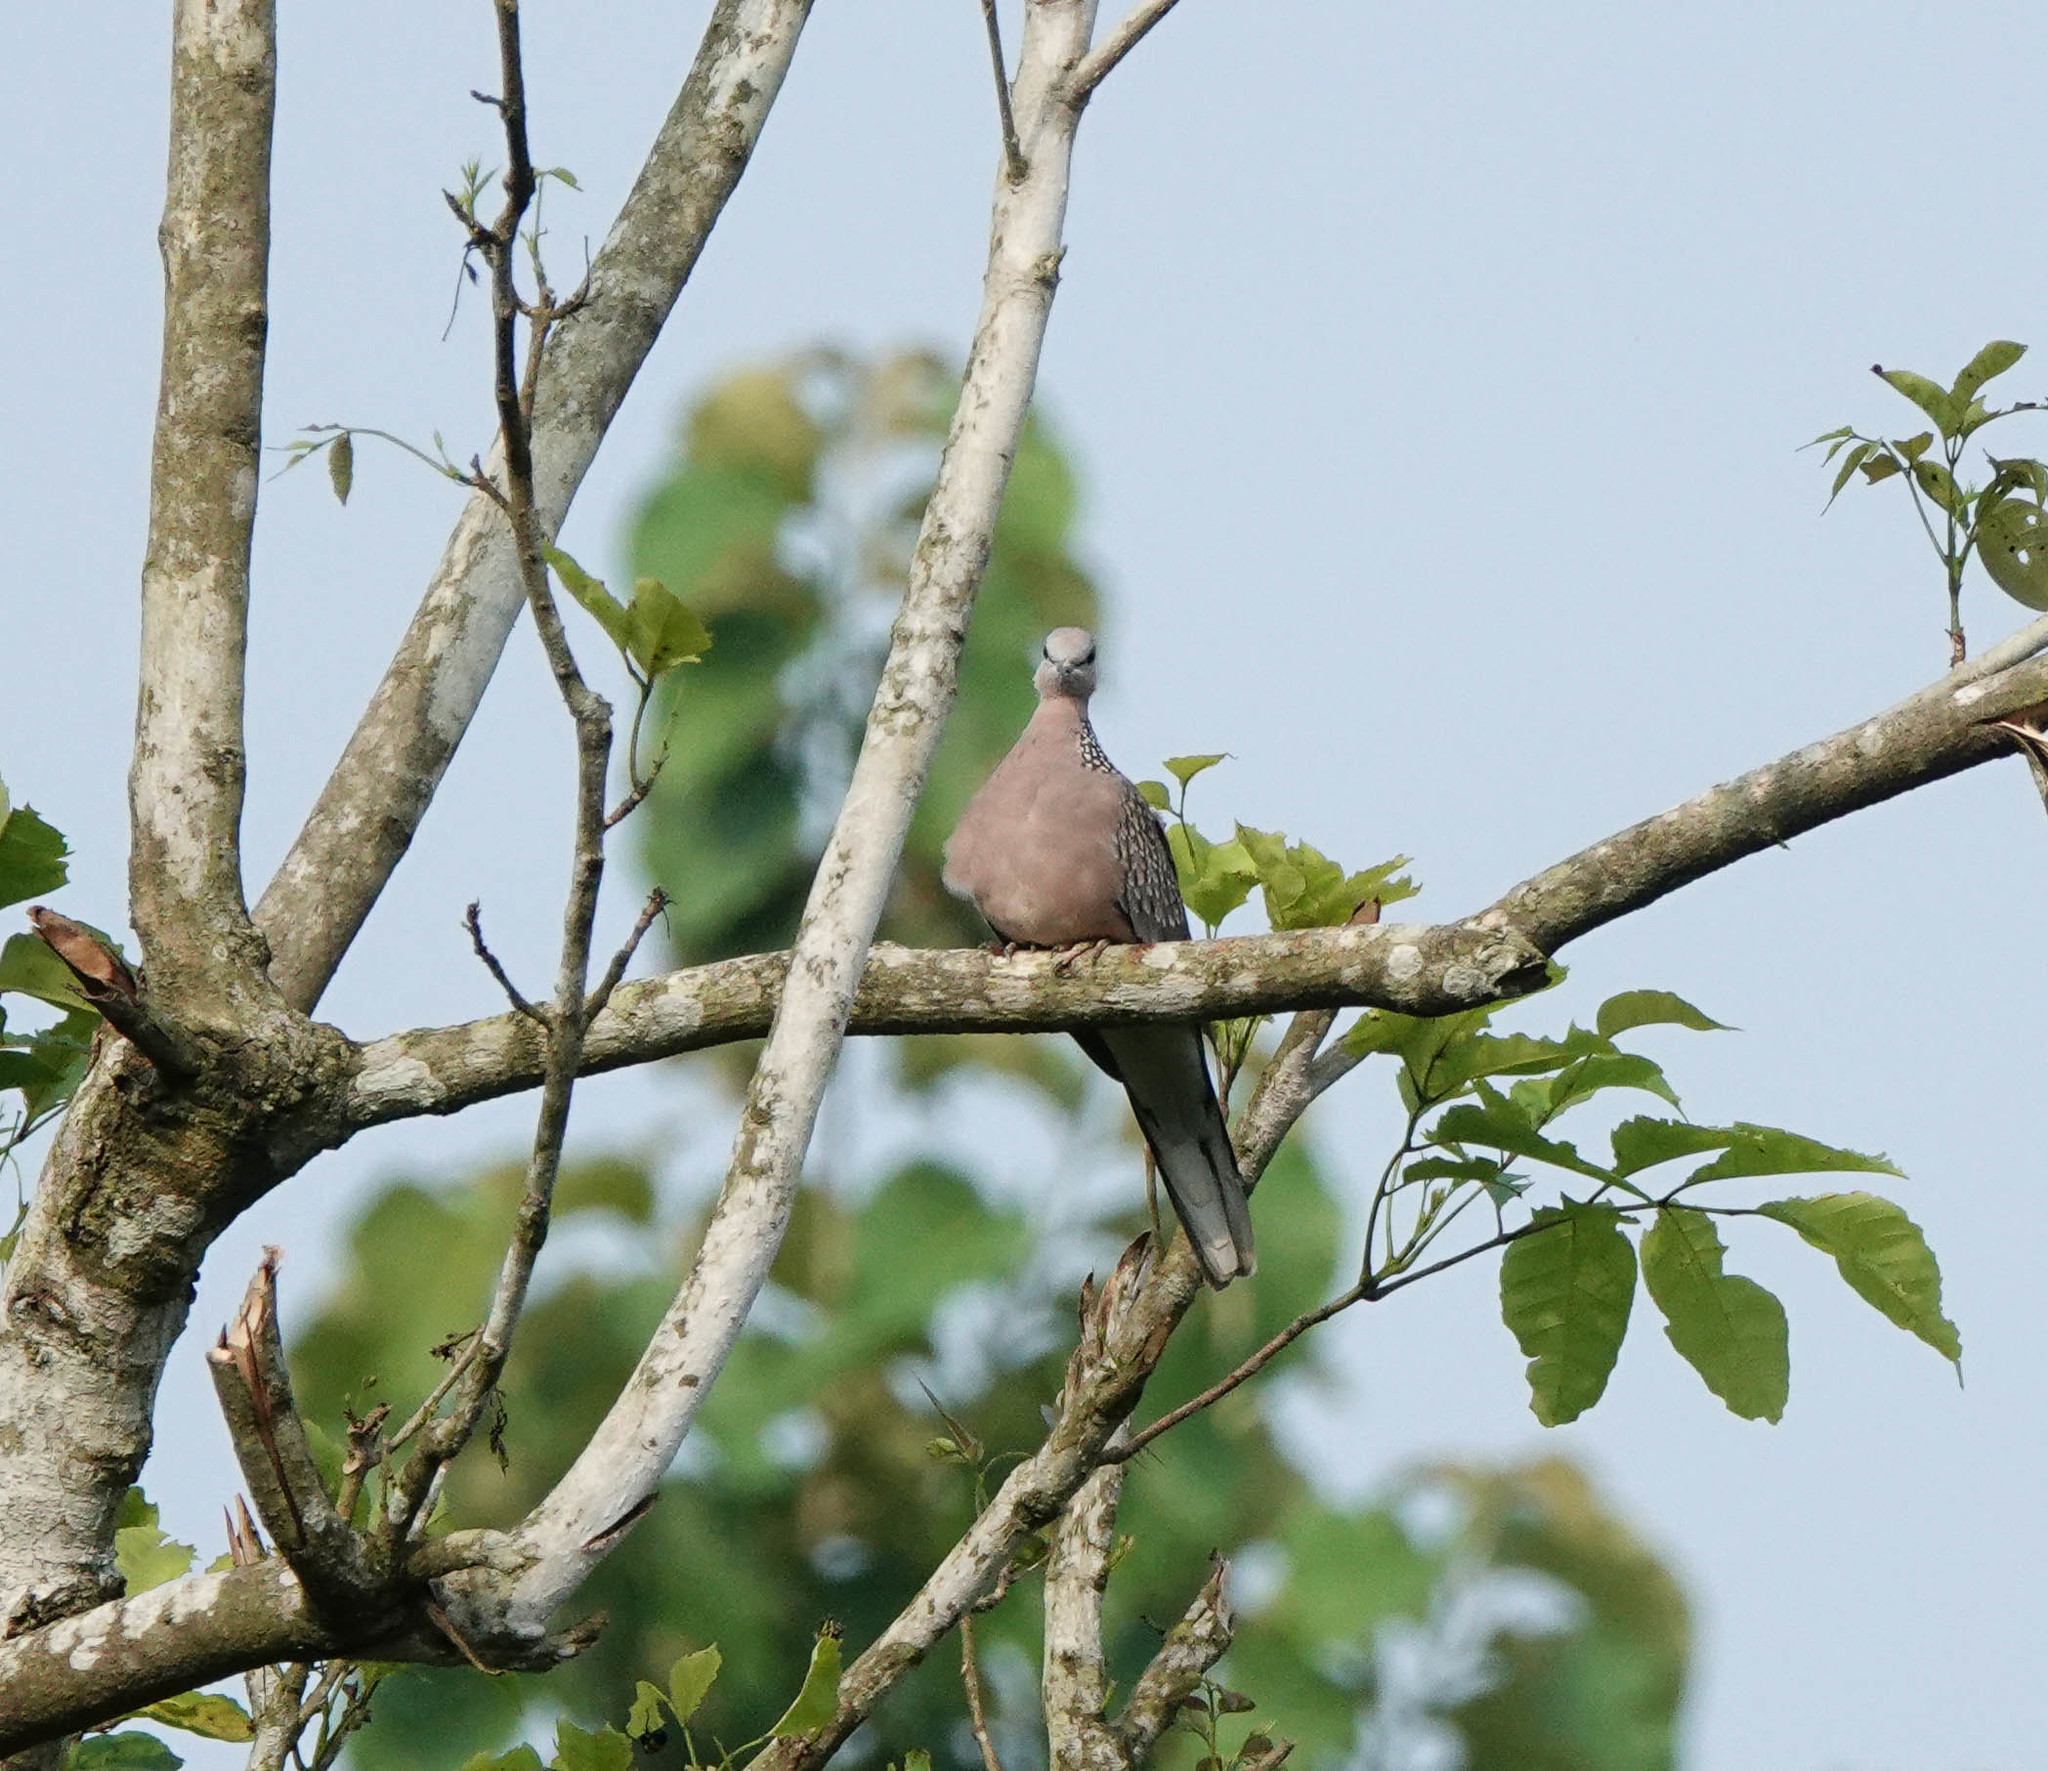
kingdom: Animalia
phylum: Chordata
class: Aves
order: Columbiformes
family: Columbidae
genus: Spilopelia
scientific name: Spilopelia chinensis
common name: Spotted dove
